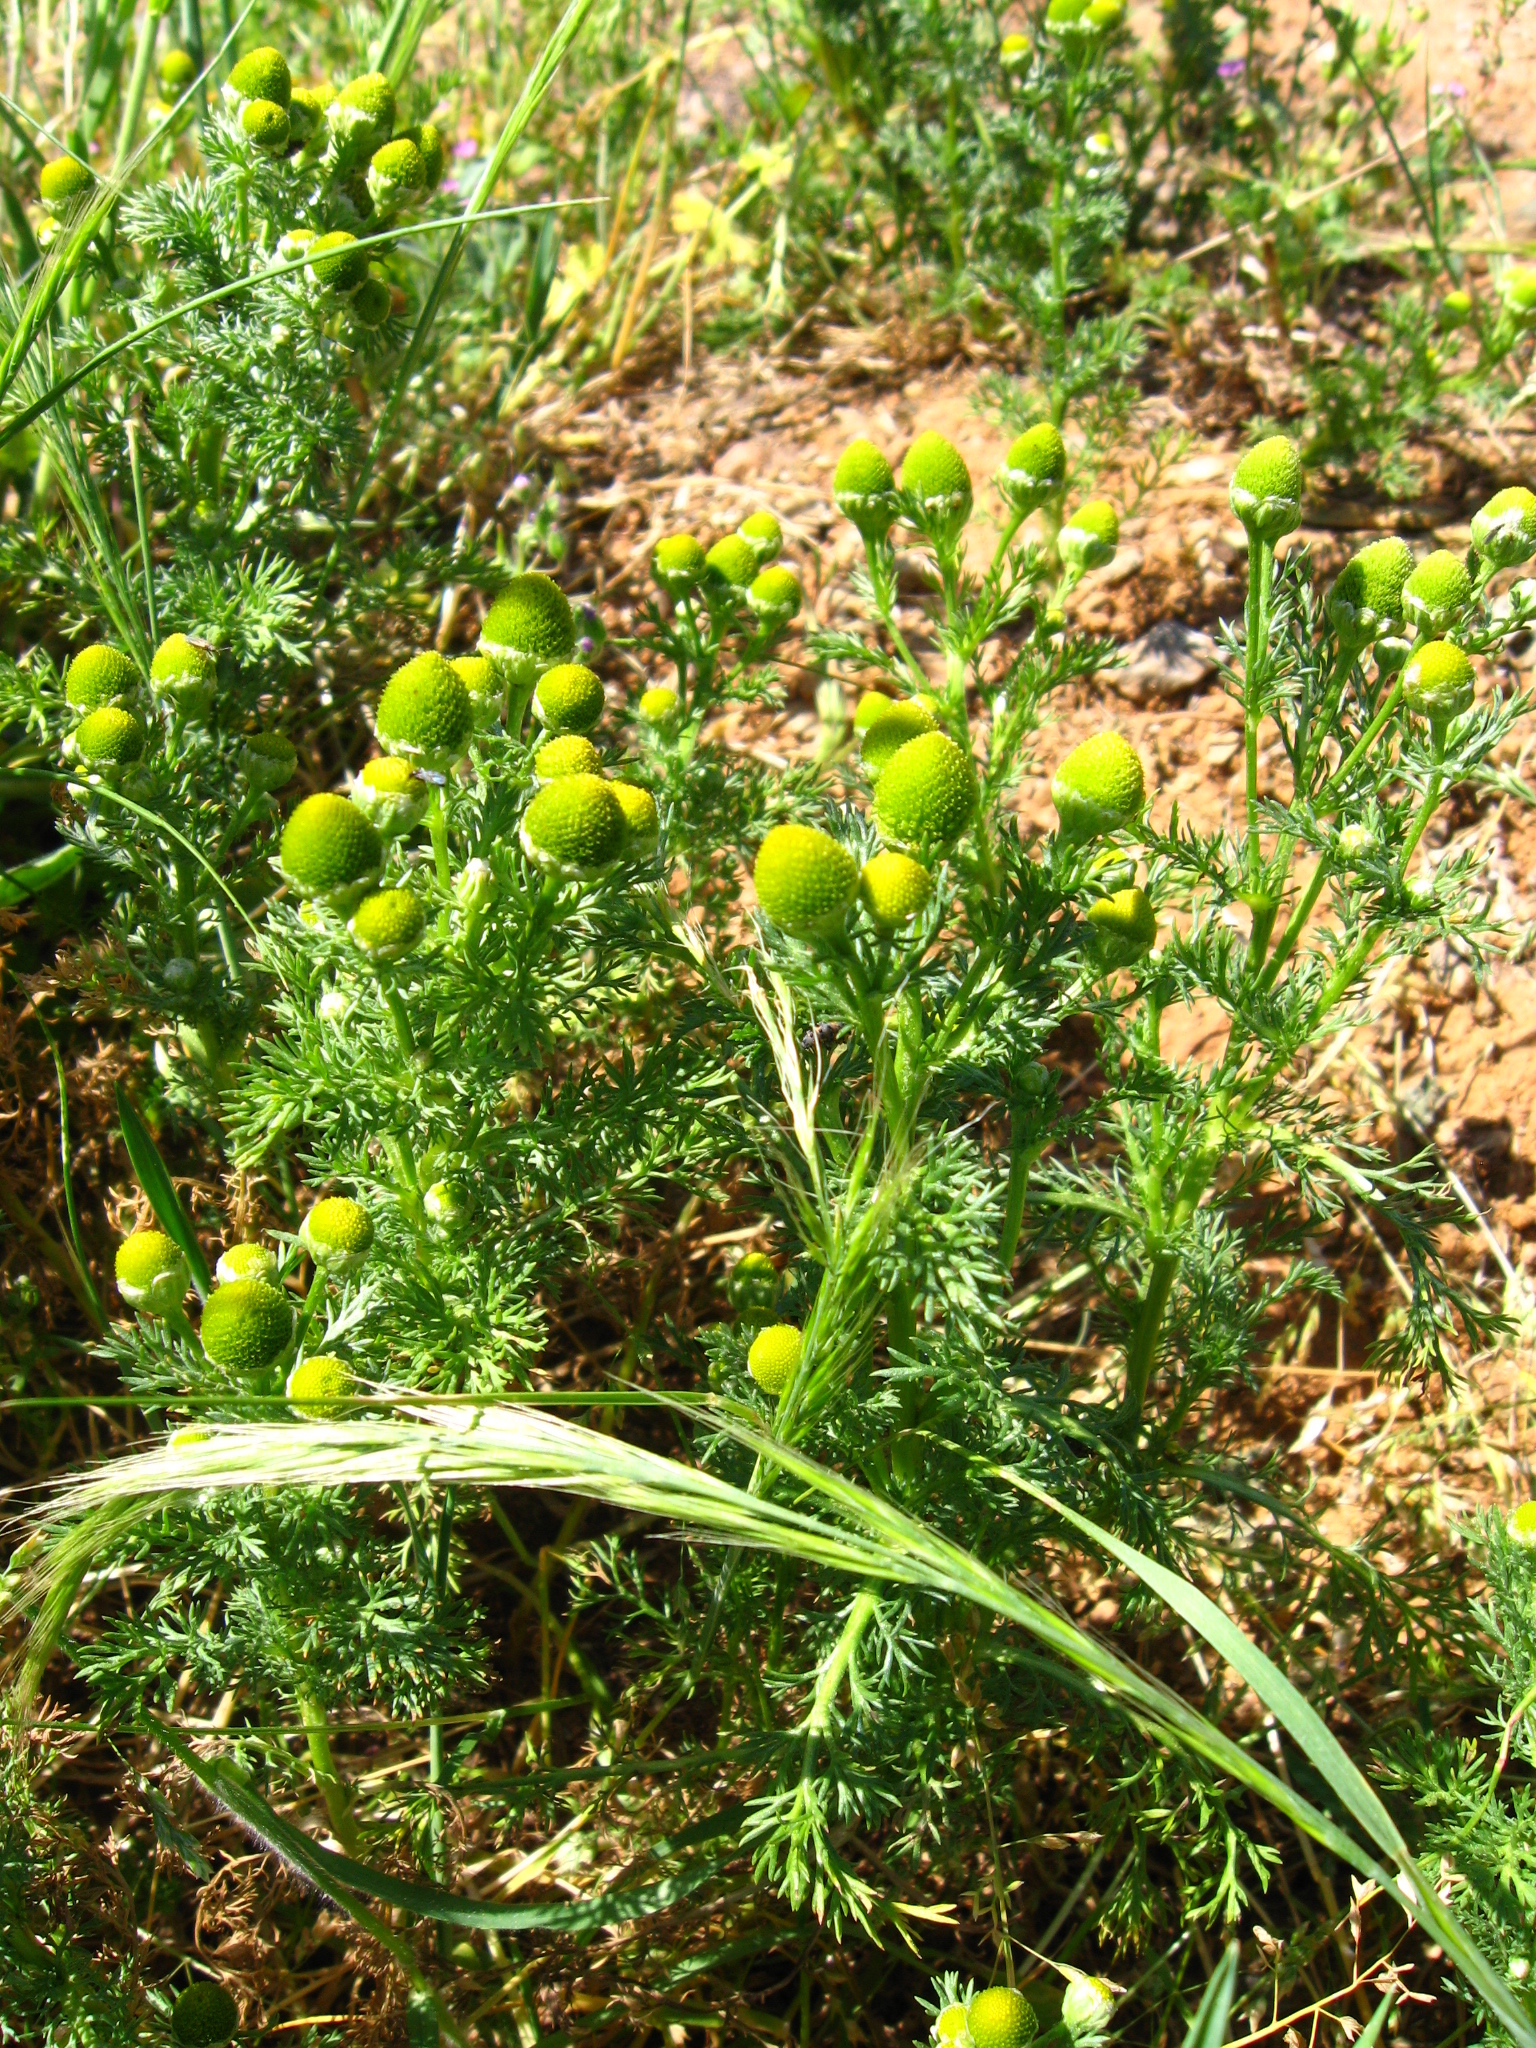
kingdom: Plantae
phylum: Tracheophyta
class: Magnoliopsida
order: Asterales
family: Asteraceae
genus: Matricaria
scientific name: Matricaria discoidea
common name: Disc mayweed
